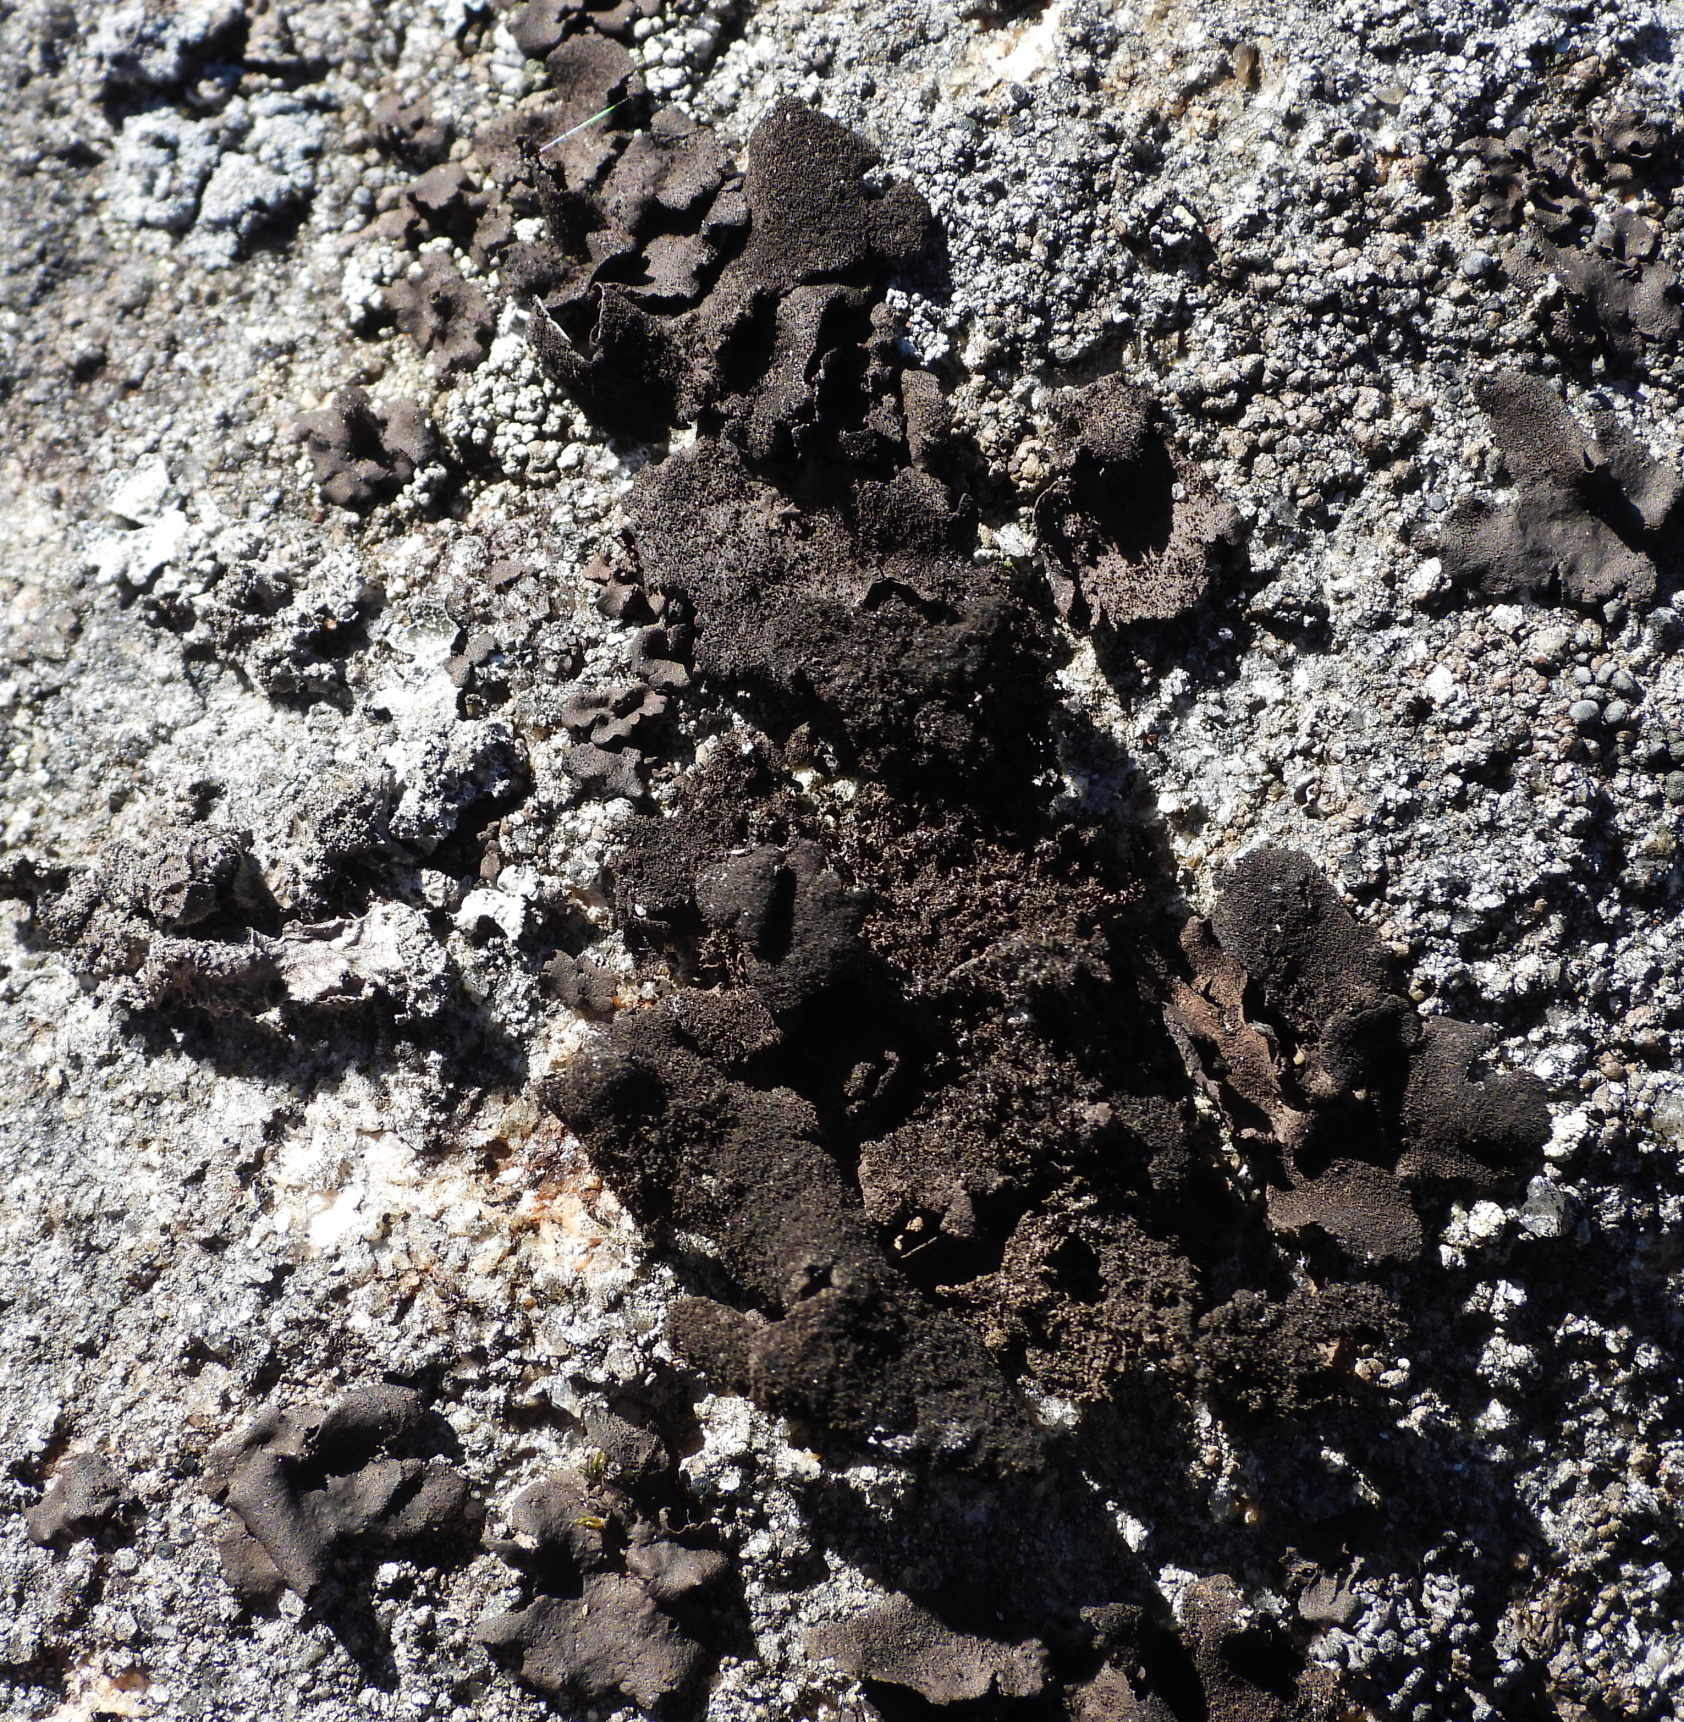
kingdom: Fungi
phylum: Ascomycota
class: Lecanoromycetes
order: Umbilicariales
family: Umbilicariaceae
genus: Umbilicaria
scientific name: Umbilicaria deusta
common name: Peppered rock tripe
